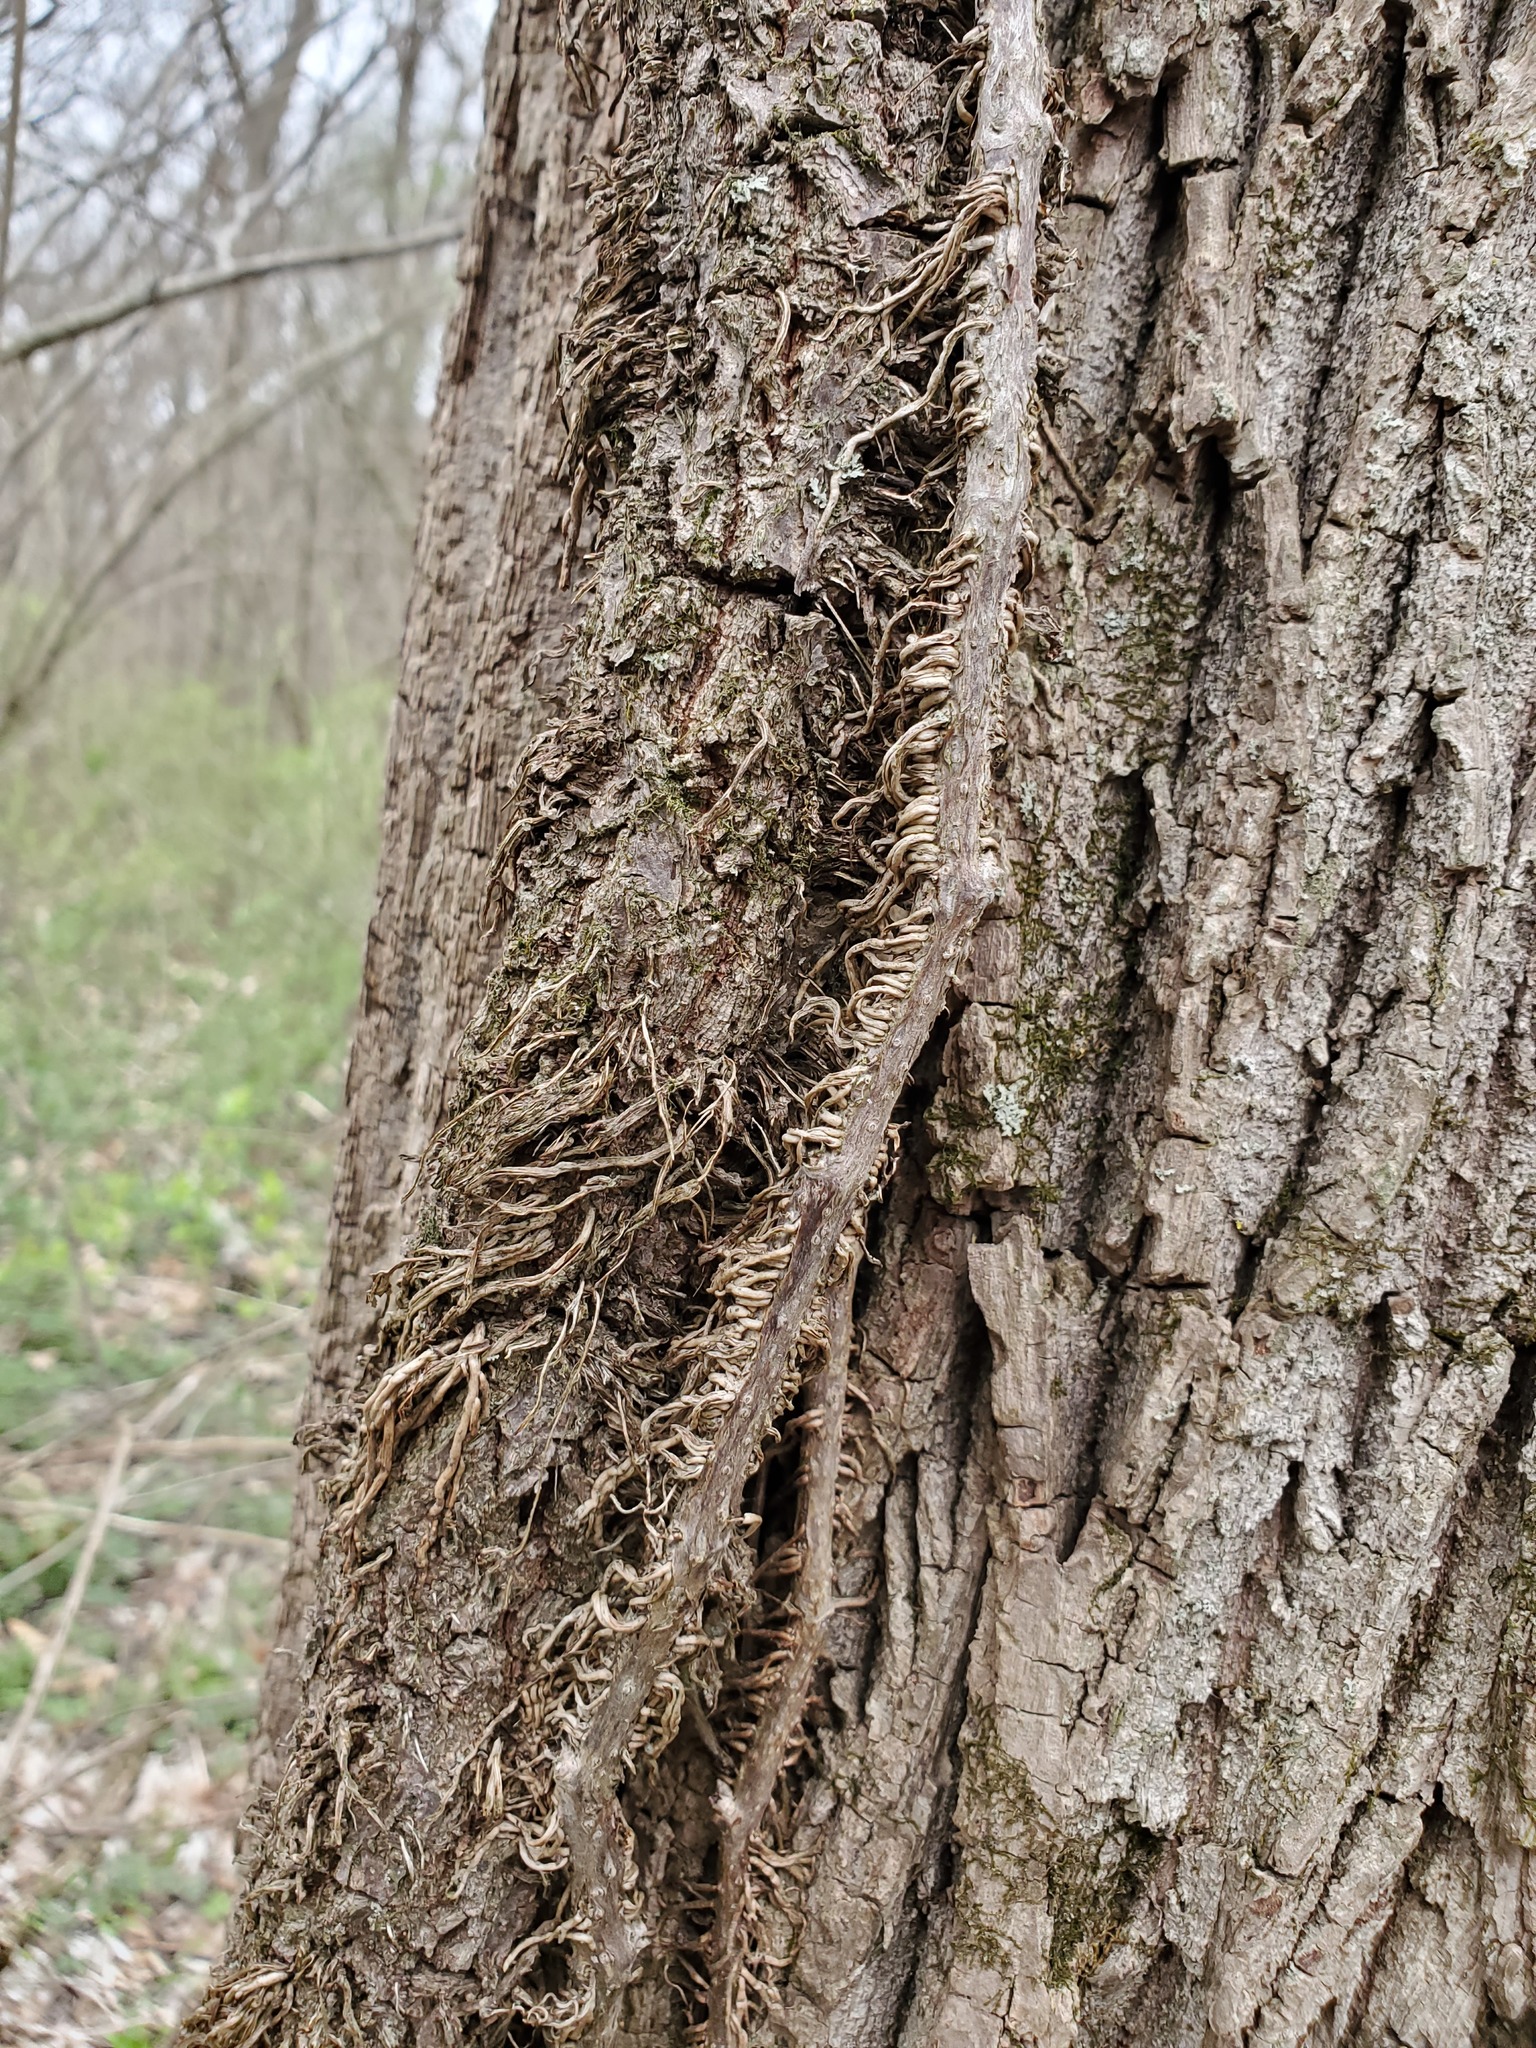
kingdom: Plantae
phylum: Tracheophyta
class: Magnoliopsida
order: Vitales
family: Vitaceae
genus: Parthenocissus
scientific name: Parthenocissus quinquefolia
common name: Virginia-creeper
